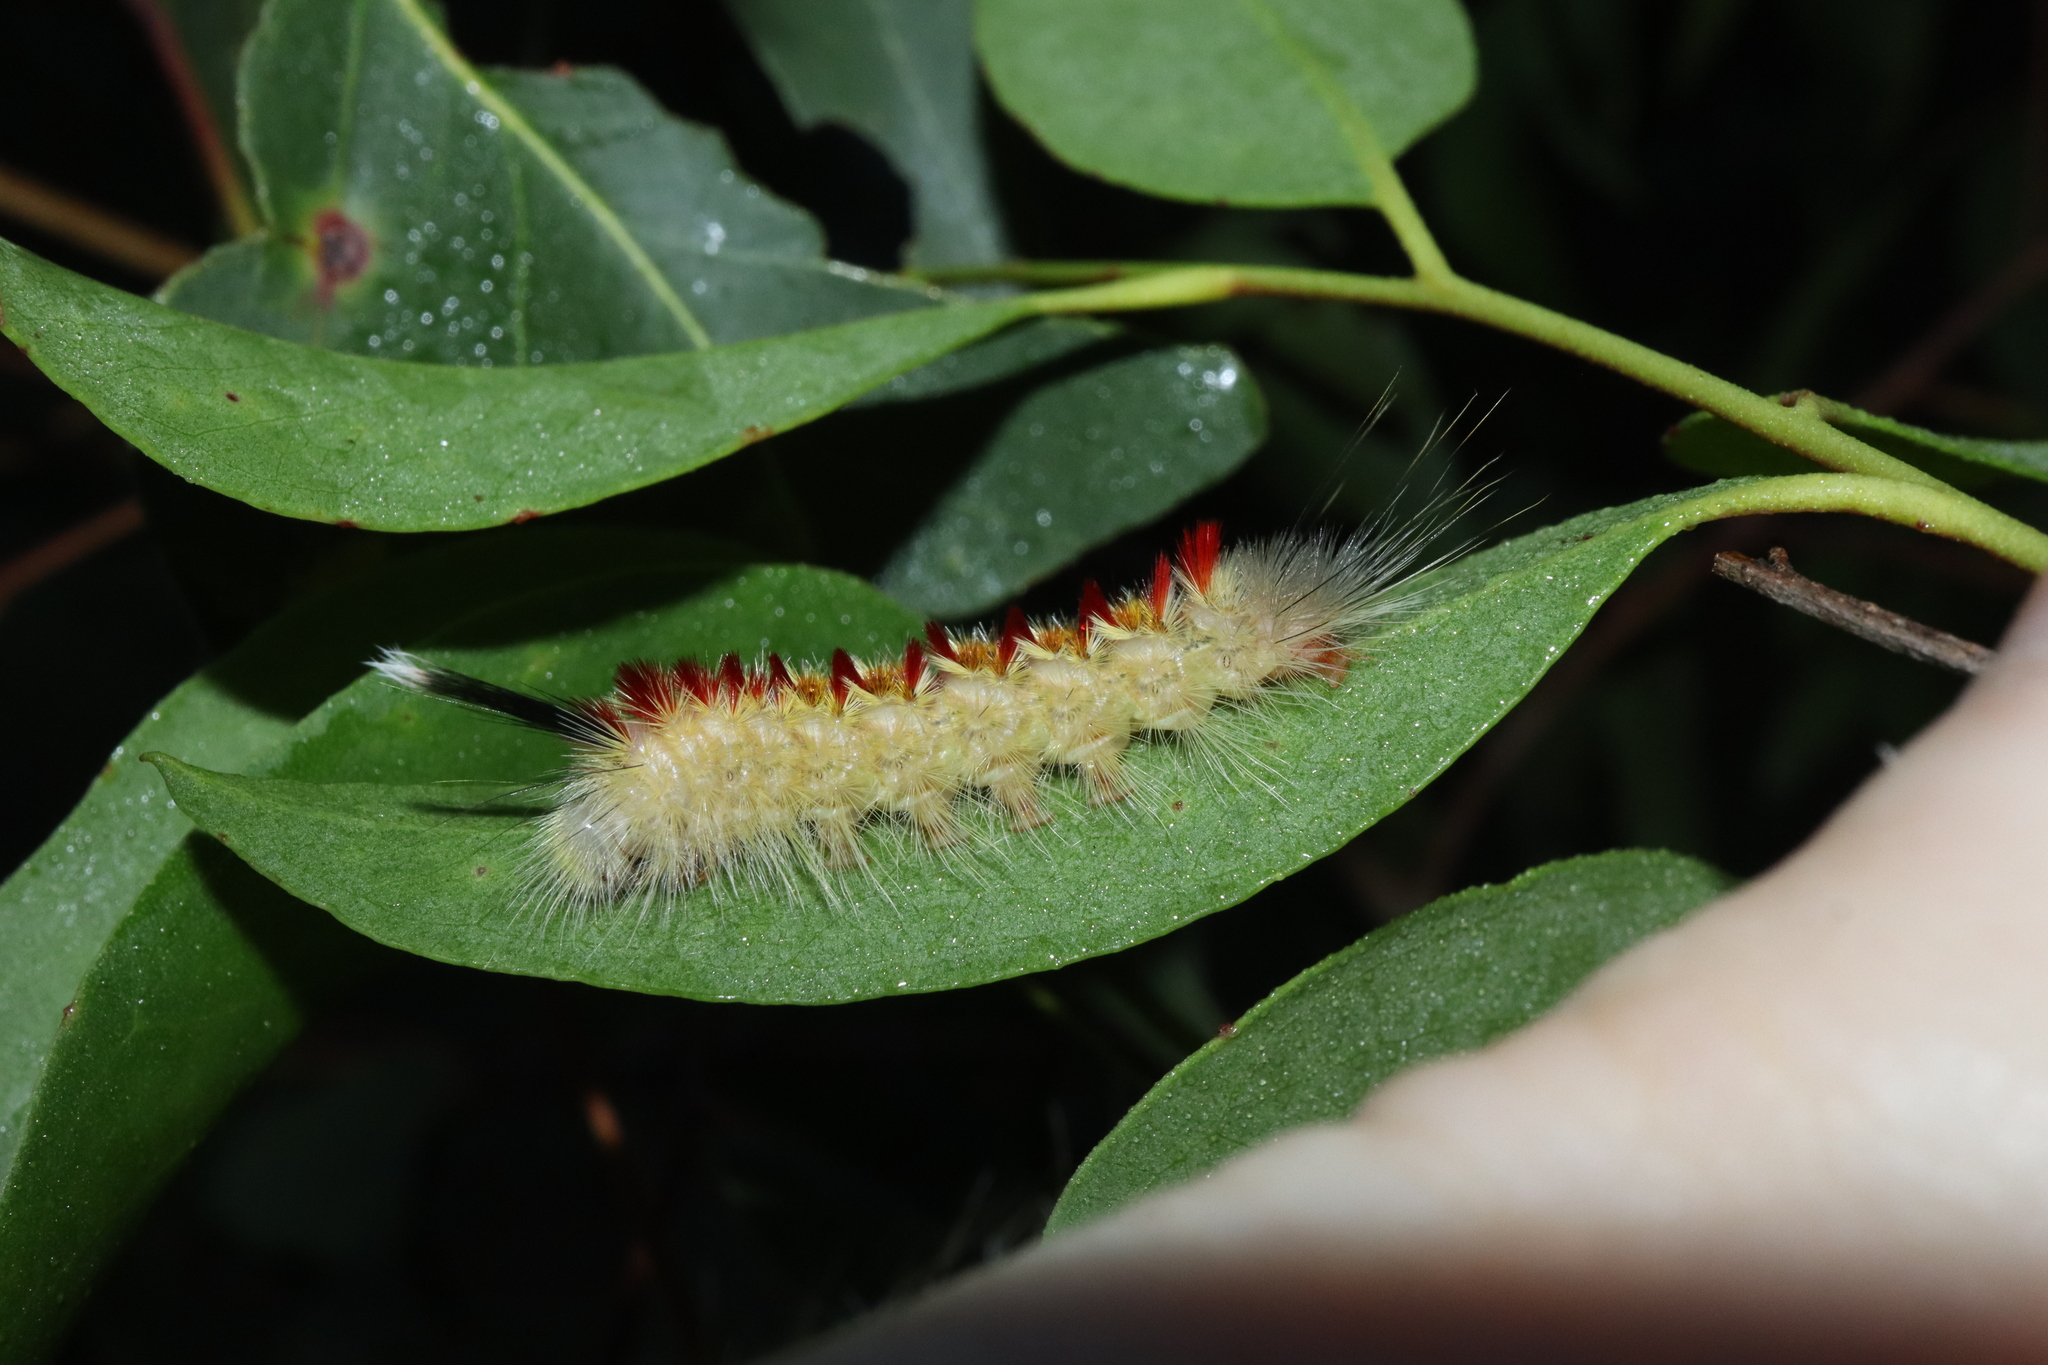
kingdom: Animalia
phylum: Arthropoda
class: Insecta
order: Lepidoptera
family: Notodontidae
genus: Trichiocercus
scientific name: Trichiocercus sparshalli
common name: Long-tailed satin
